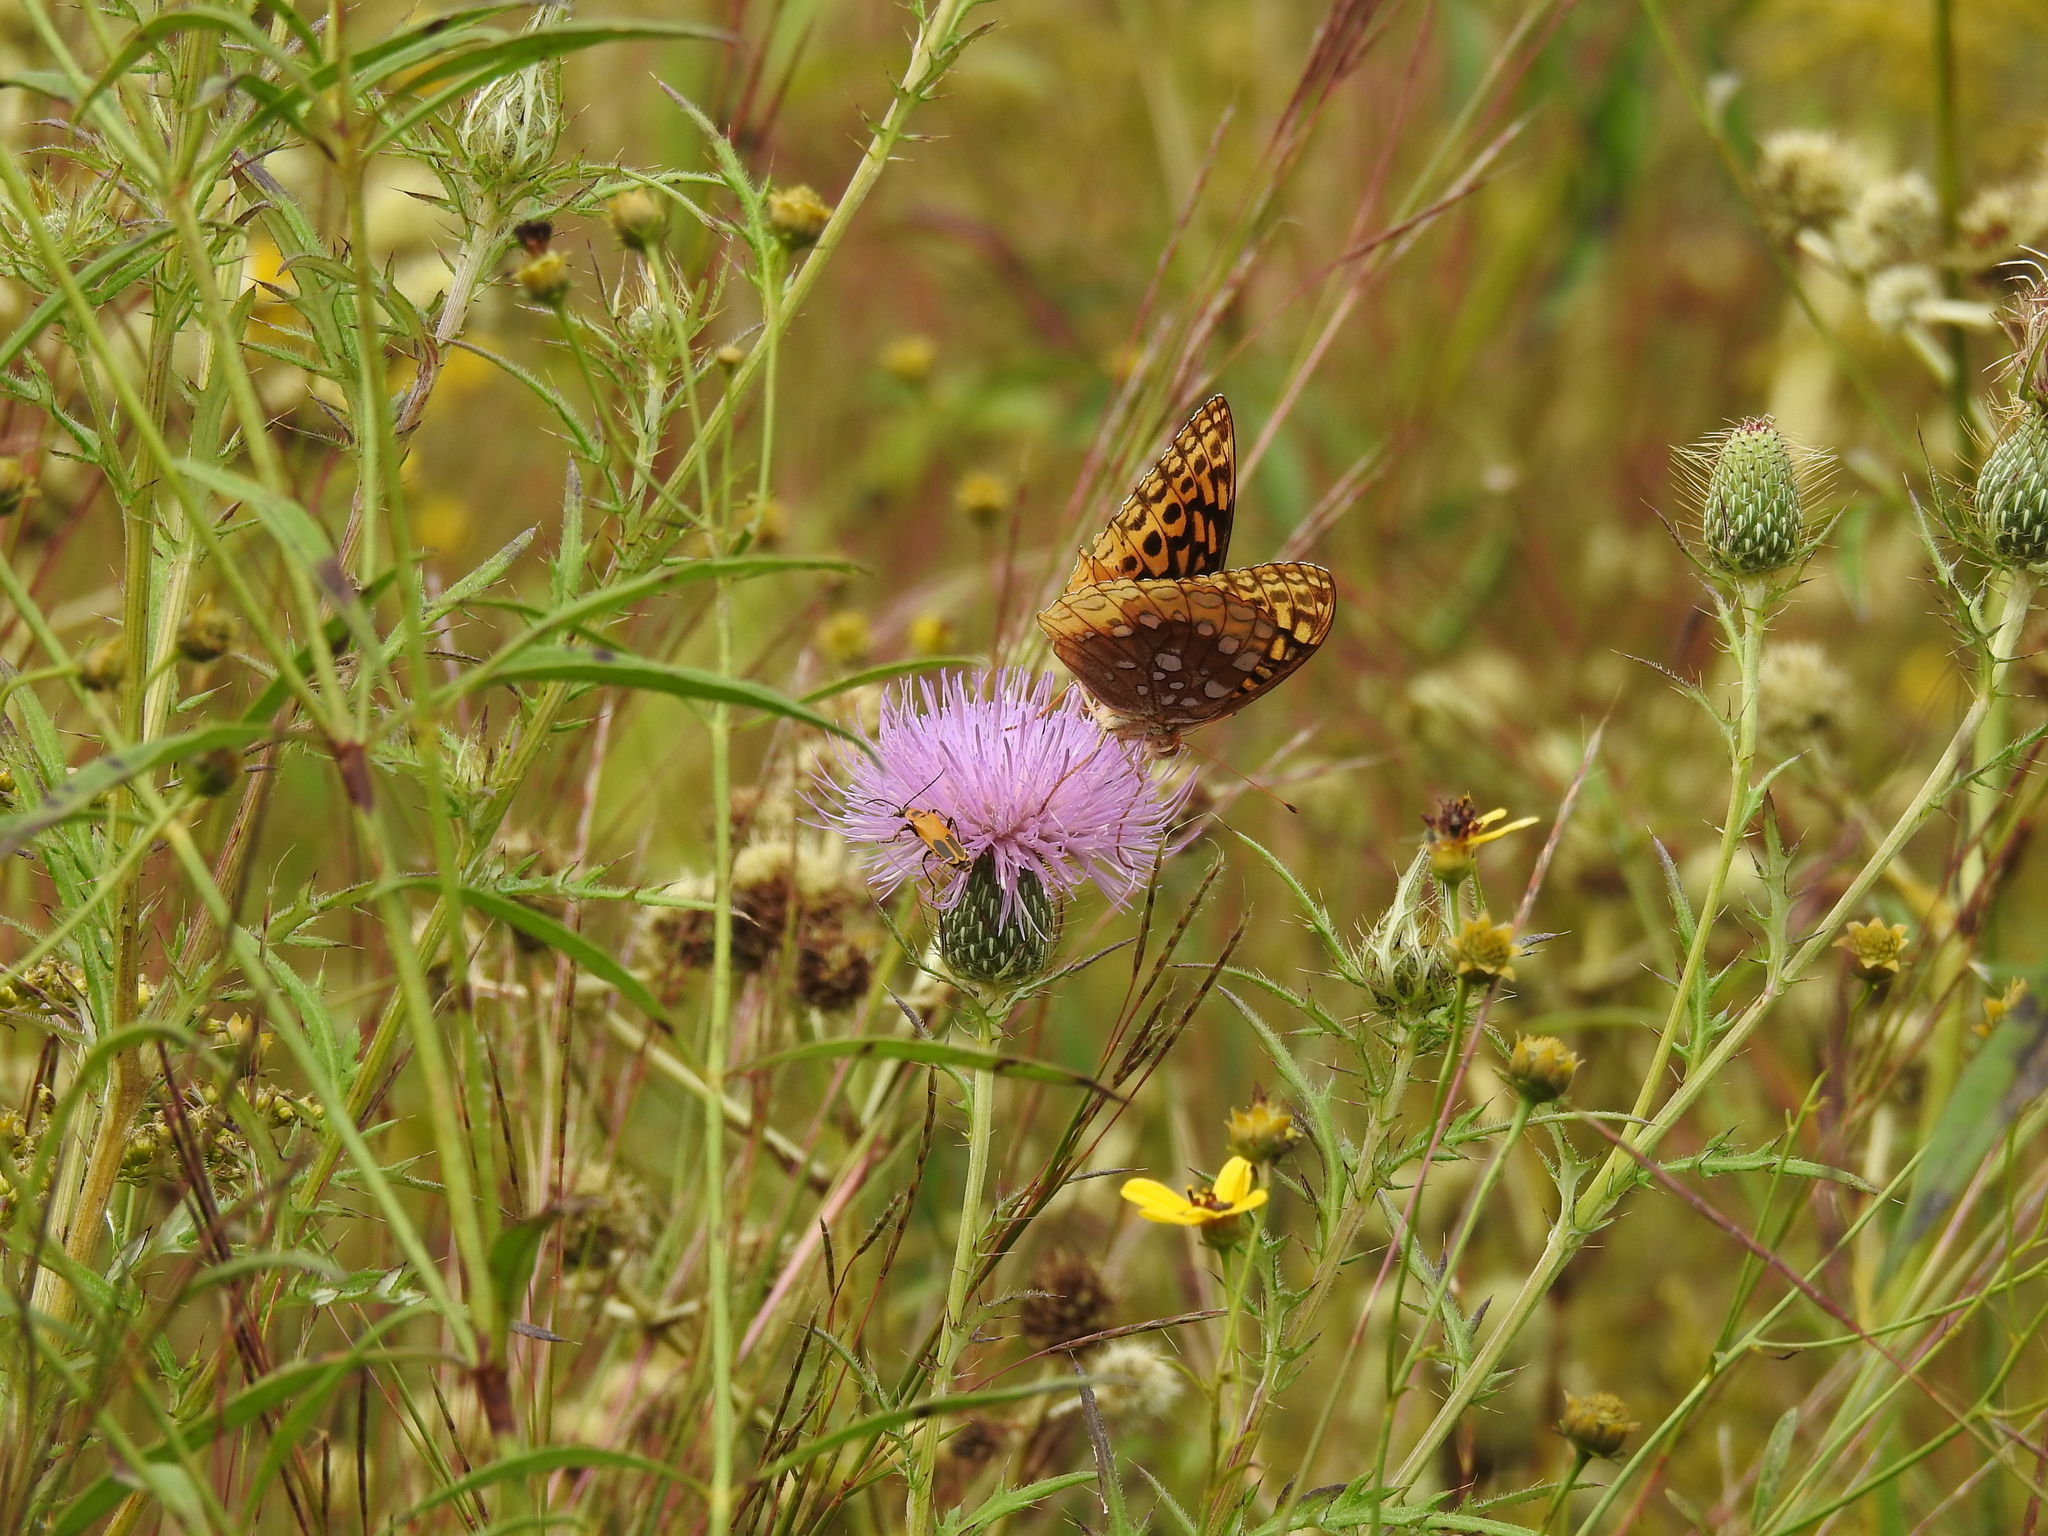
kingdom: Animalia
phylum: Arthropoda
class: Insecta
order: Lepidoptera
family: Nymphalidae
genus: Speyeria
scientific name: Speyeria cybele
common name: Great spangled fritillary
